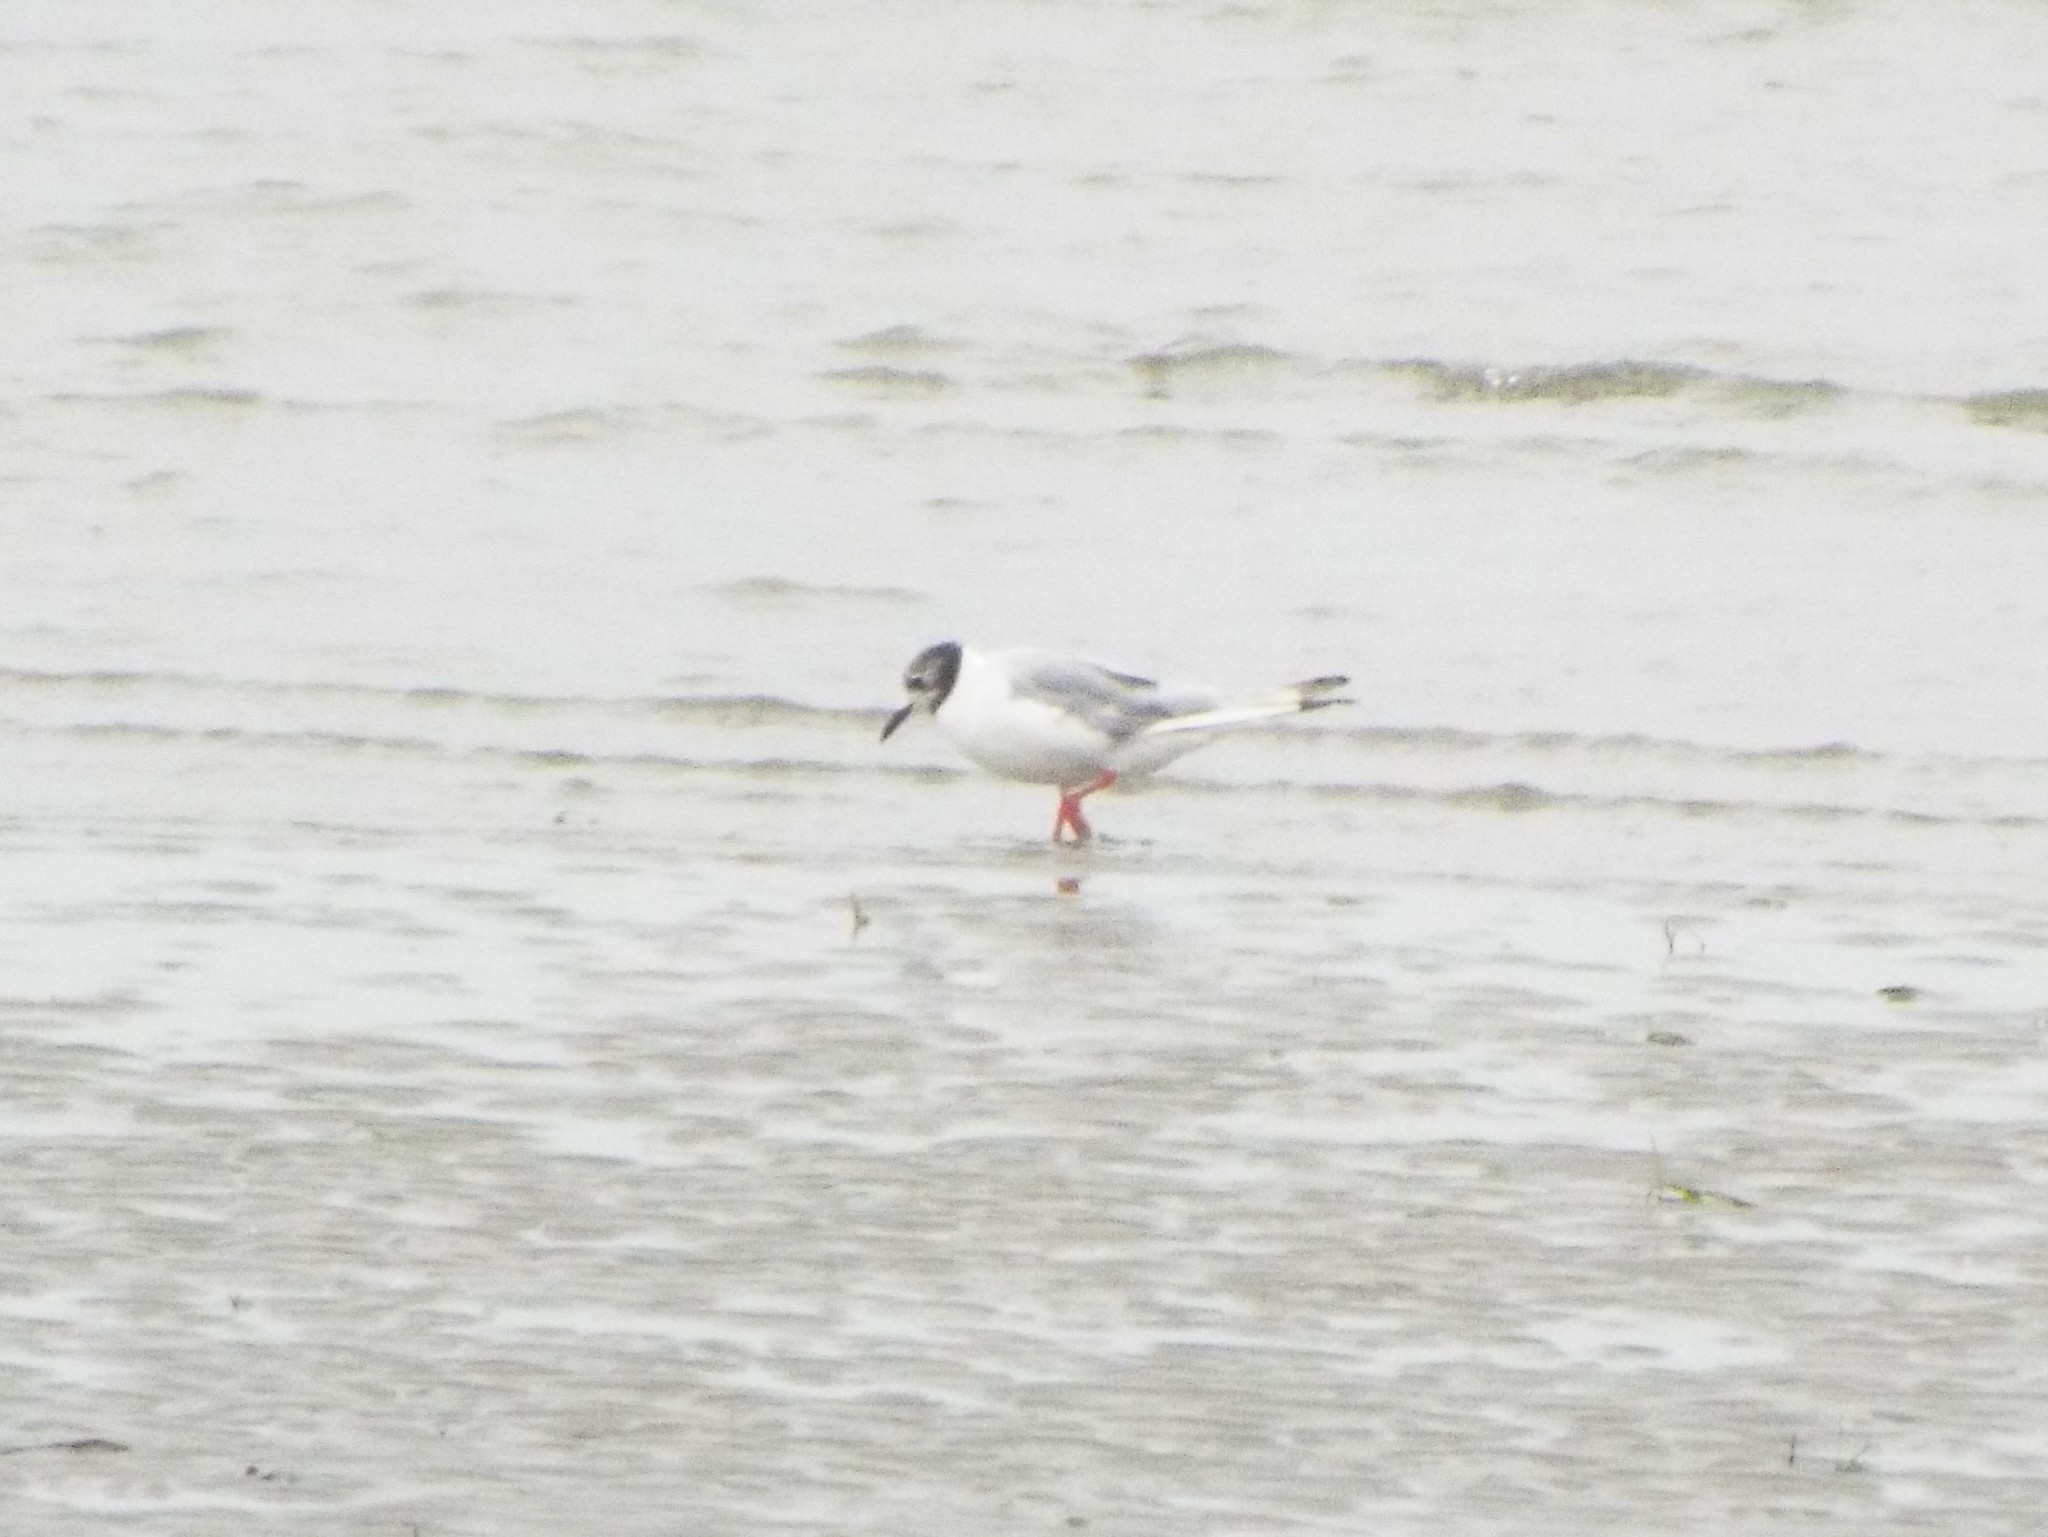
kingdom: Animalia
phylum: Chordata
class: Aves
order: Charadriiformes
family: Laridae
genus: Chroicocephalus
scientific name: Chroicocephalus philadelphia
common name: Bonaparte's gull
